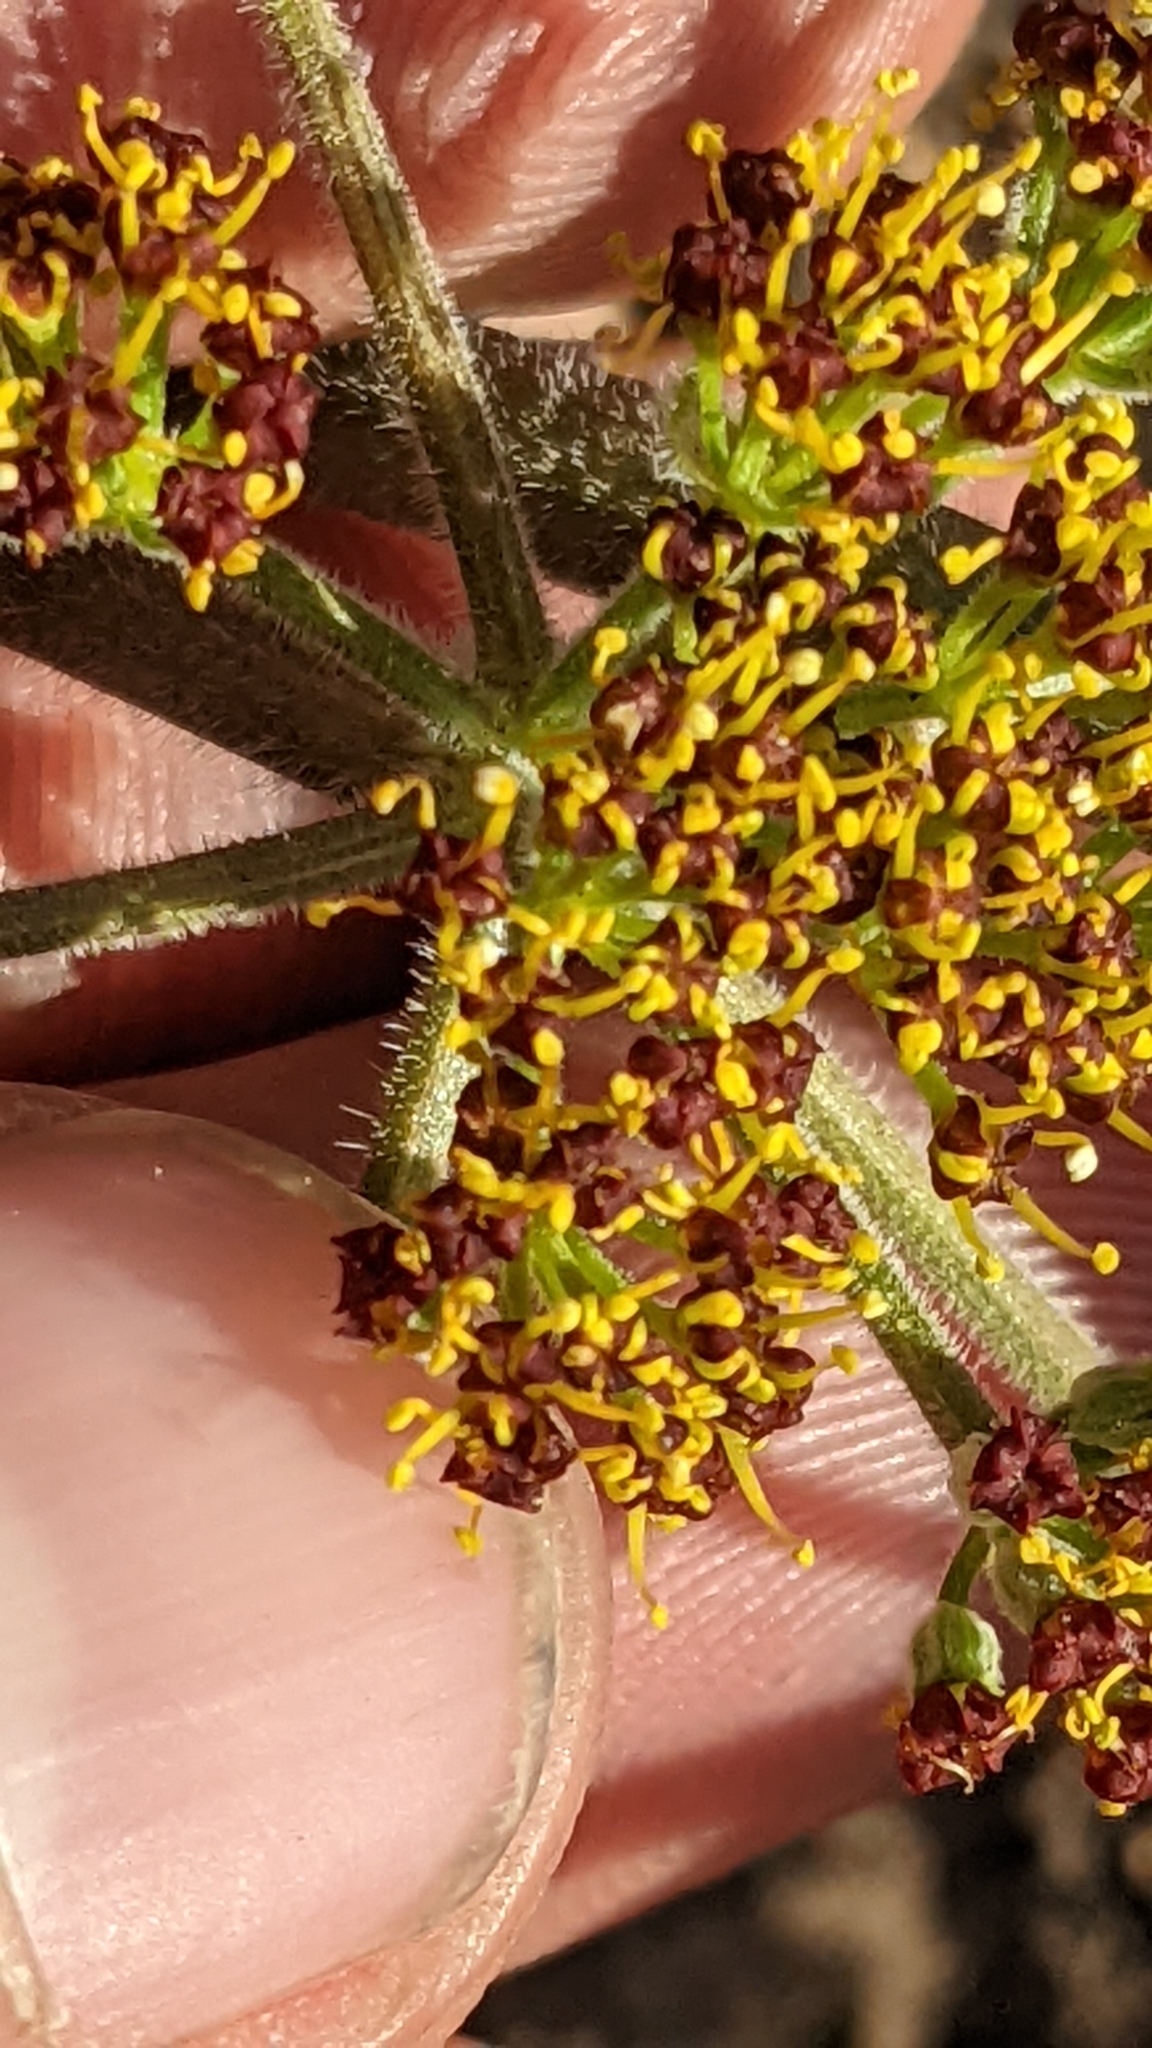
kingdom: Plantae
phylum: Tracheophyta
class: Magnoliopsida
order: Apiales
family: Apiaceae
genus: Lomatium
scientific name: Lomatium foeniculaceum
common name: Desert-parsley
